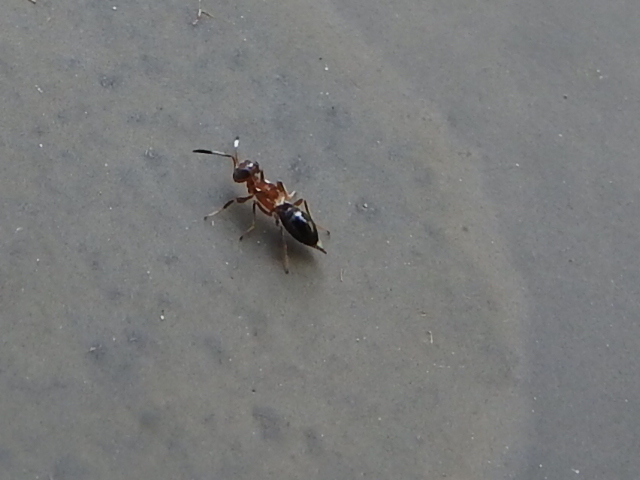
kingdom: Animalia
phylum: Arthropoda
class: Insecta
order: Hymenoptera
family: Eupelmidae
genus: Brasema
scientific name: Brasema leucothysana
